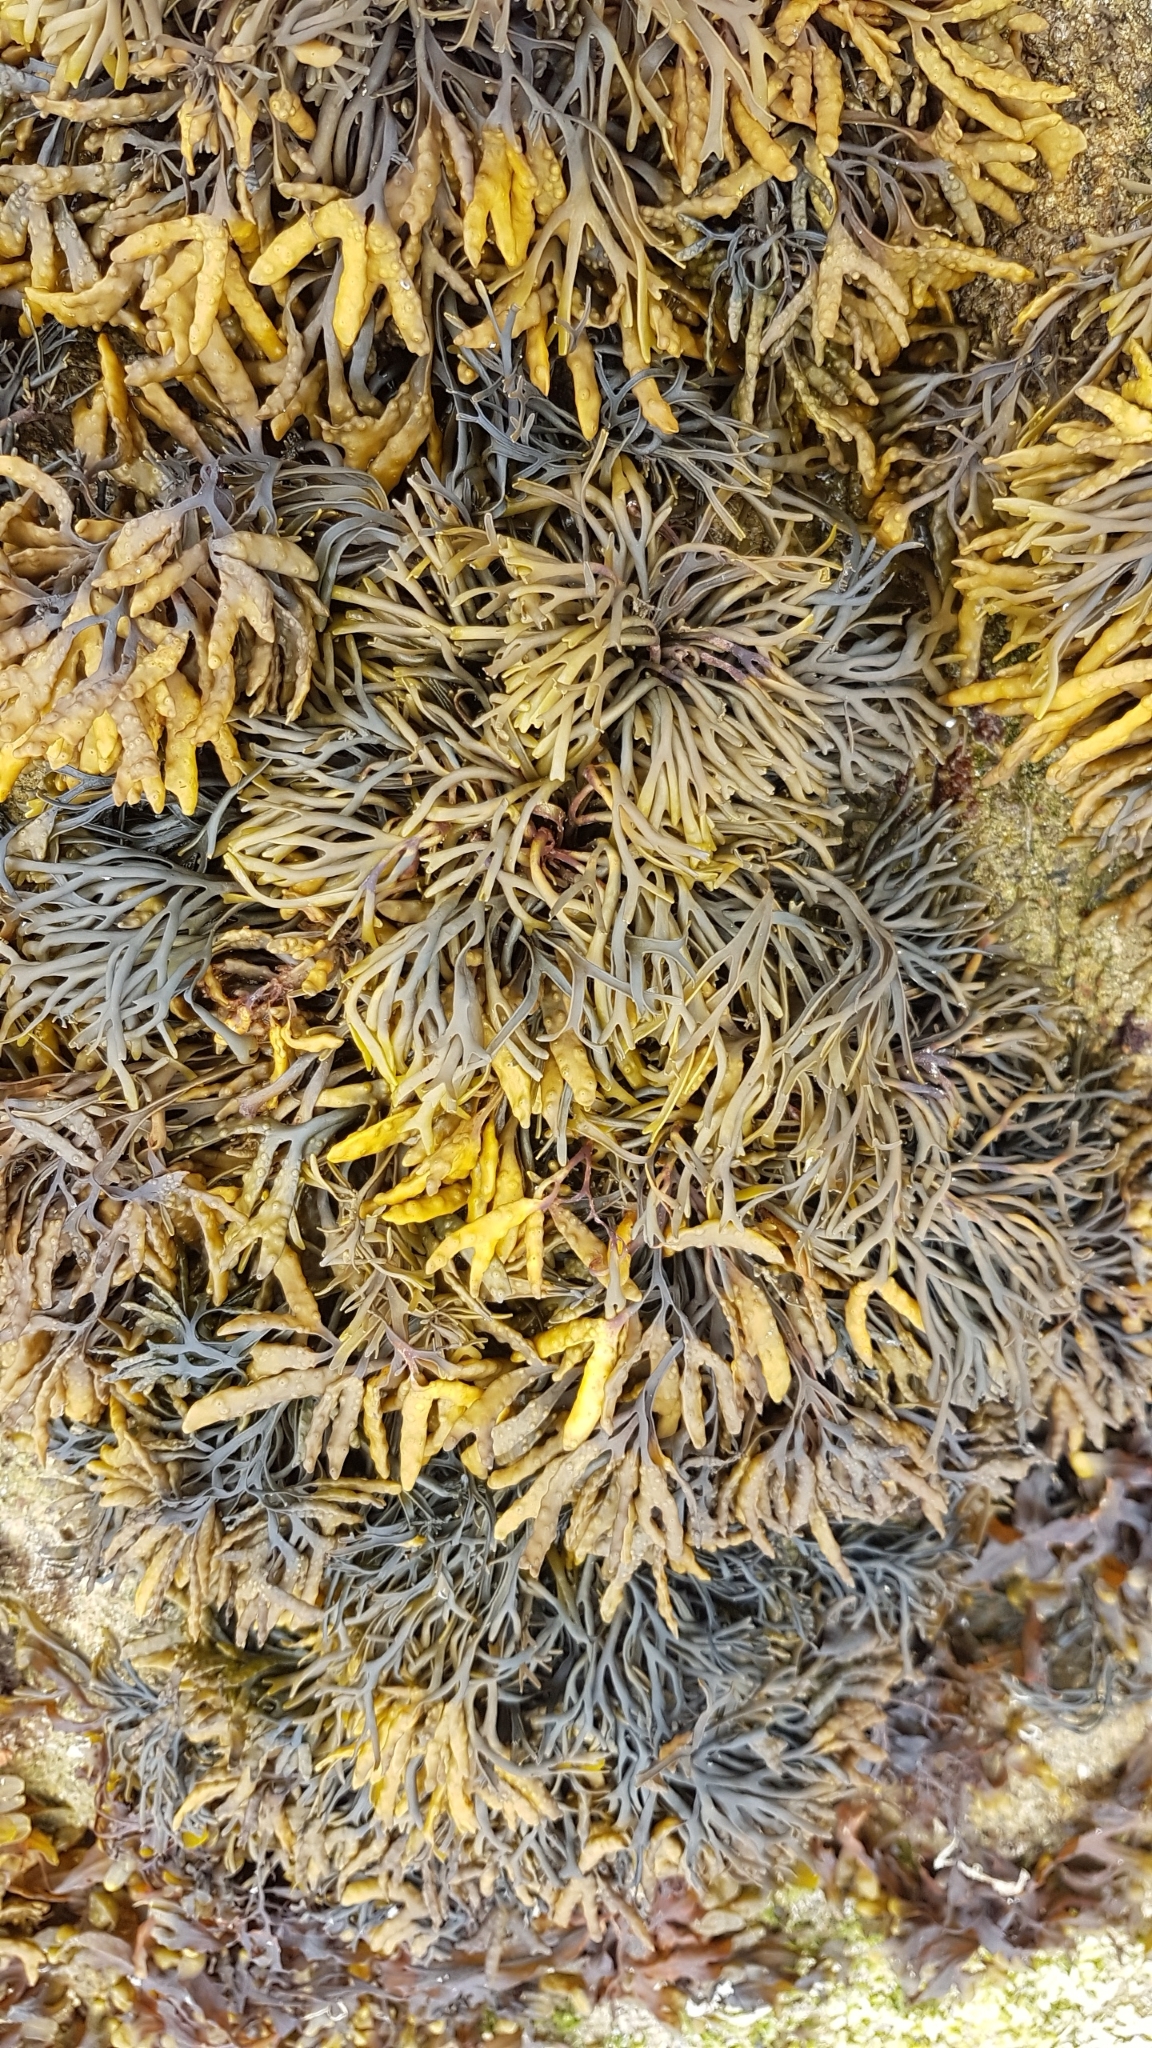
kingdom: Chromista
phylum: Ochrophyta
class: Phaeophyceae
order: Fucales
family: Fucaceae
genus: Pelvetia
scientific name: Pelvetia canaliculata
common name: Channelled wrack
